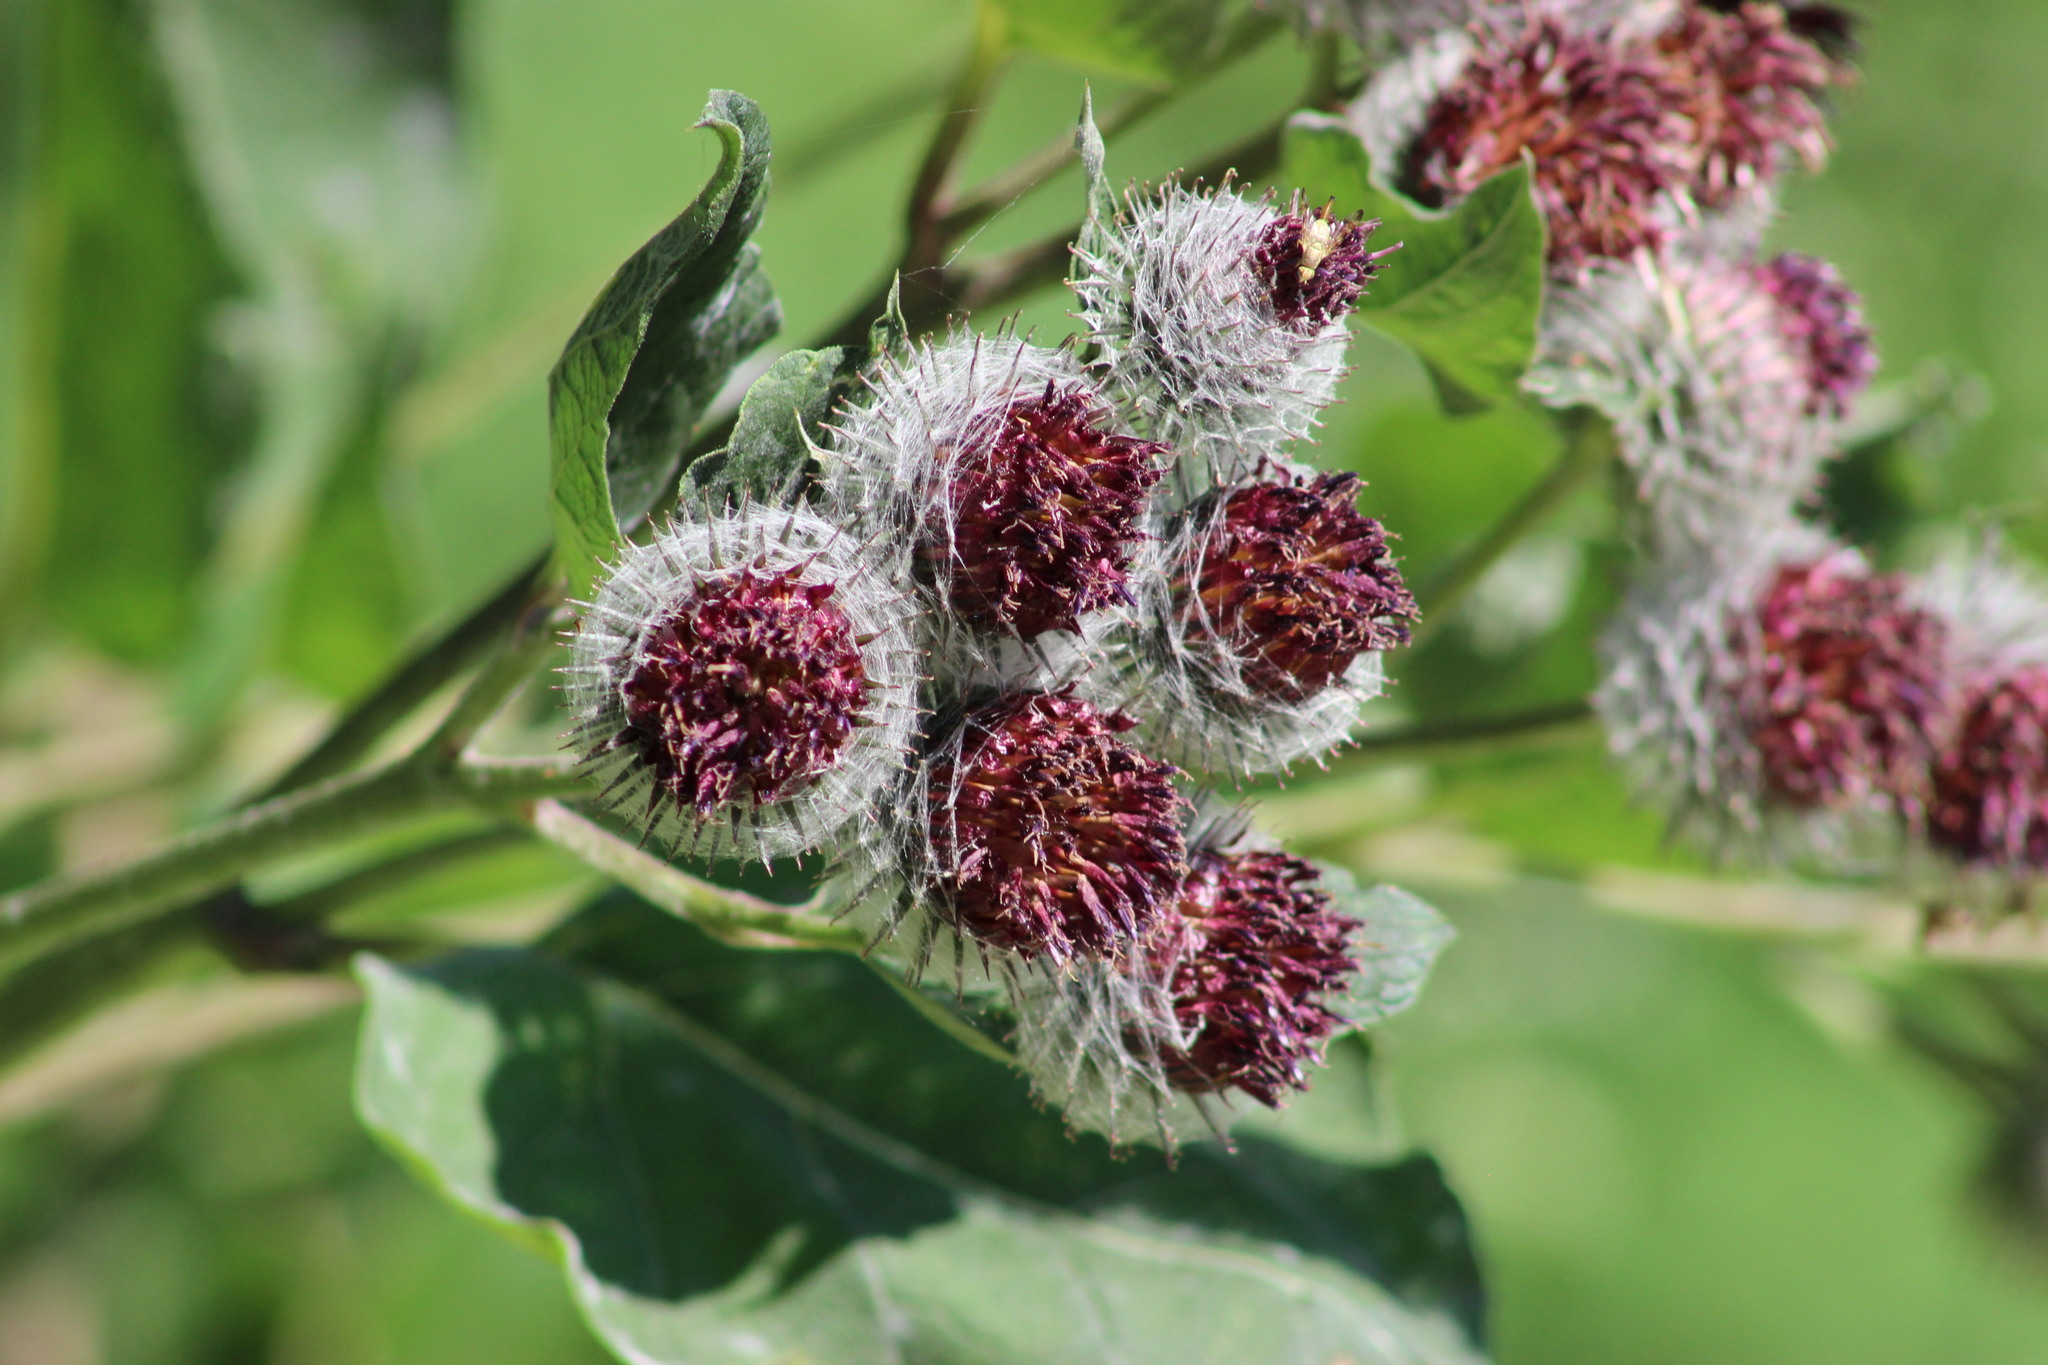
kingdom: Plantae
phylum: Tracheophyta
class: Magnoliopsida
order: Asterales
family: Asteraceae
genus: Arctium
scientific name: Arctium tomentosum
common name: Woolly burdock
